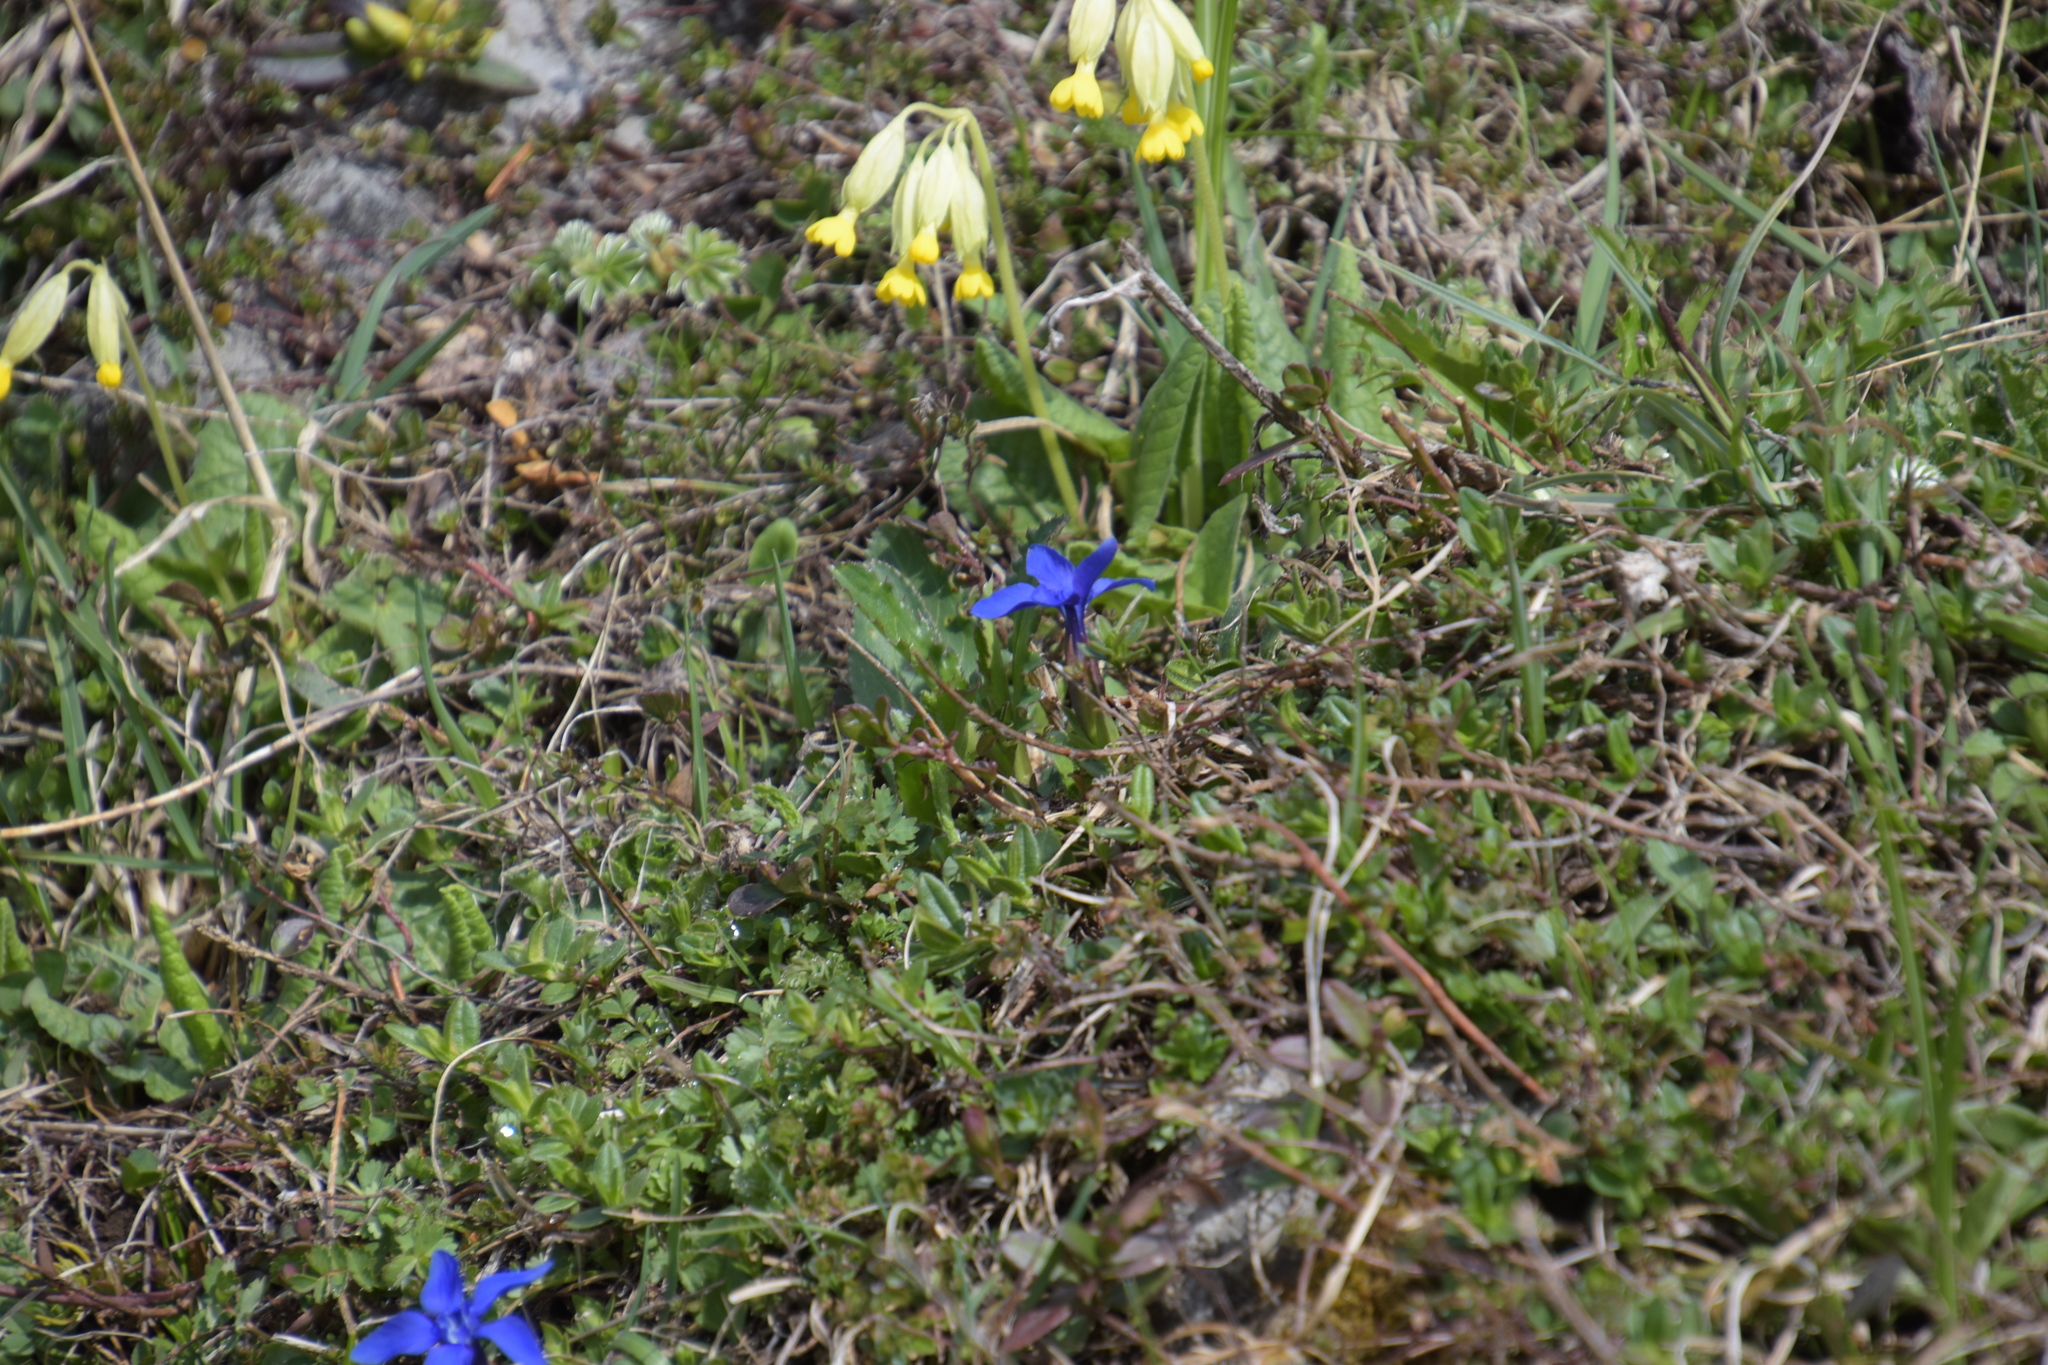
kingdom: Plantae
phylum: Tracheophyta
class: Magnoliopsida
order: Gentianales
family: Gentianaceae
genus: Gentiana
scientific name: Gentiana verna
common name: Spring gentian
